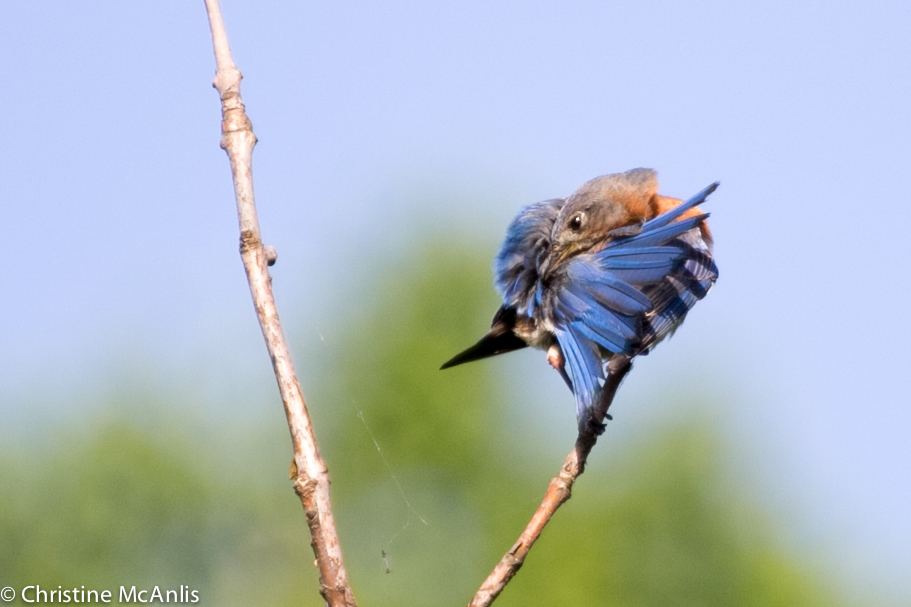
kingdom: Animalia
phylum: Chordata
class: Aves
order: Passeriformes
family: Turdidae
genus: Sialia
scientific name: Sialia sialis
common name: Eastern bluebird
